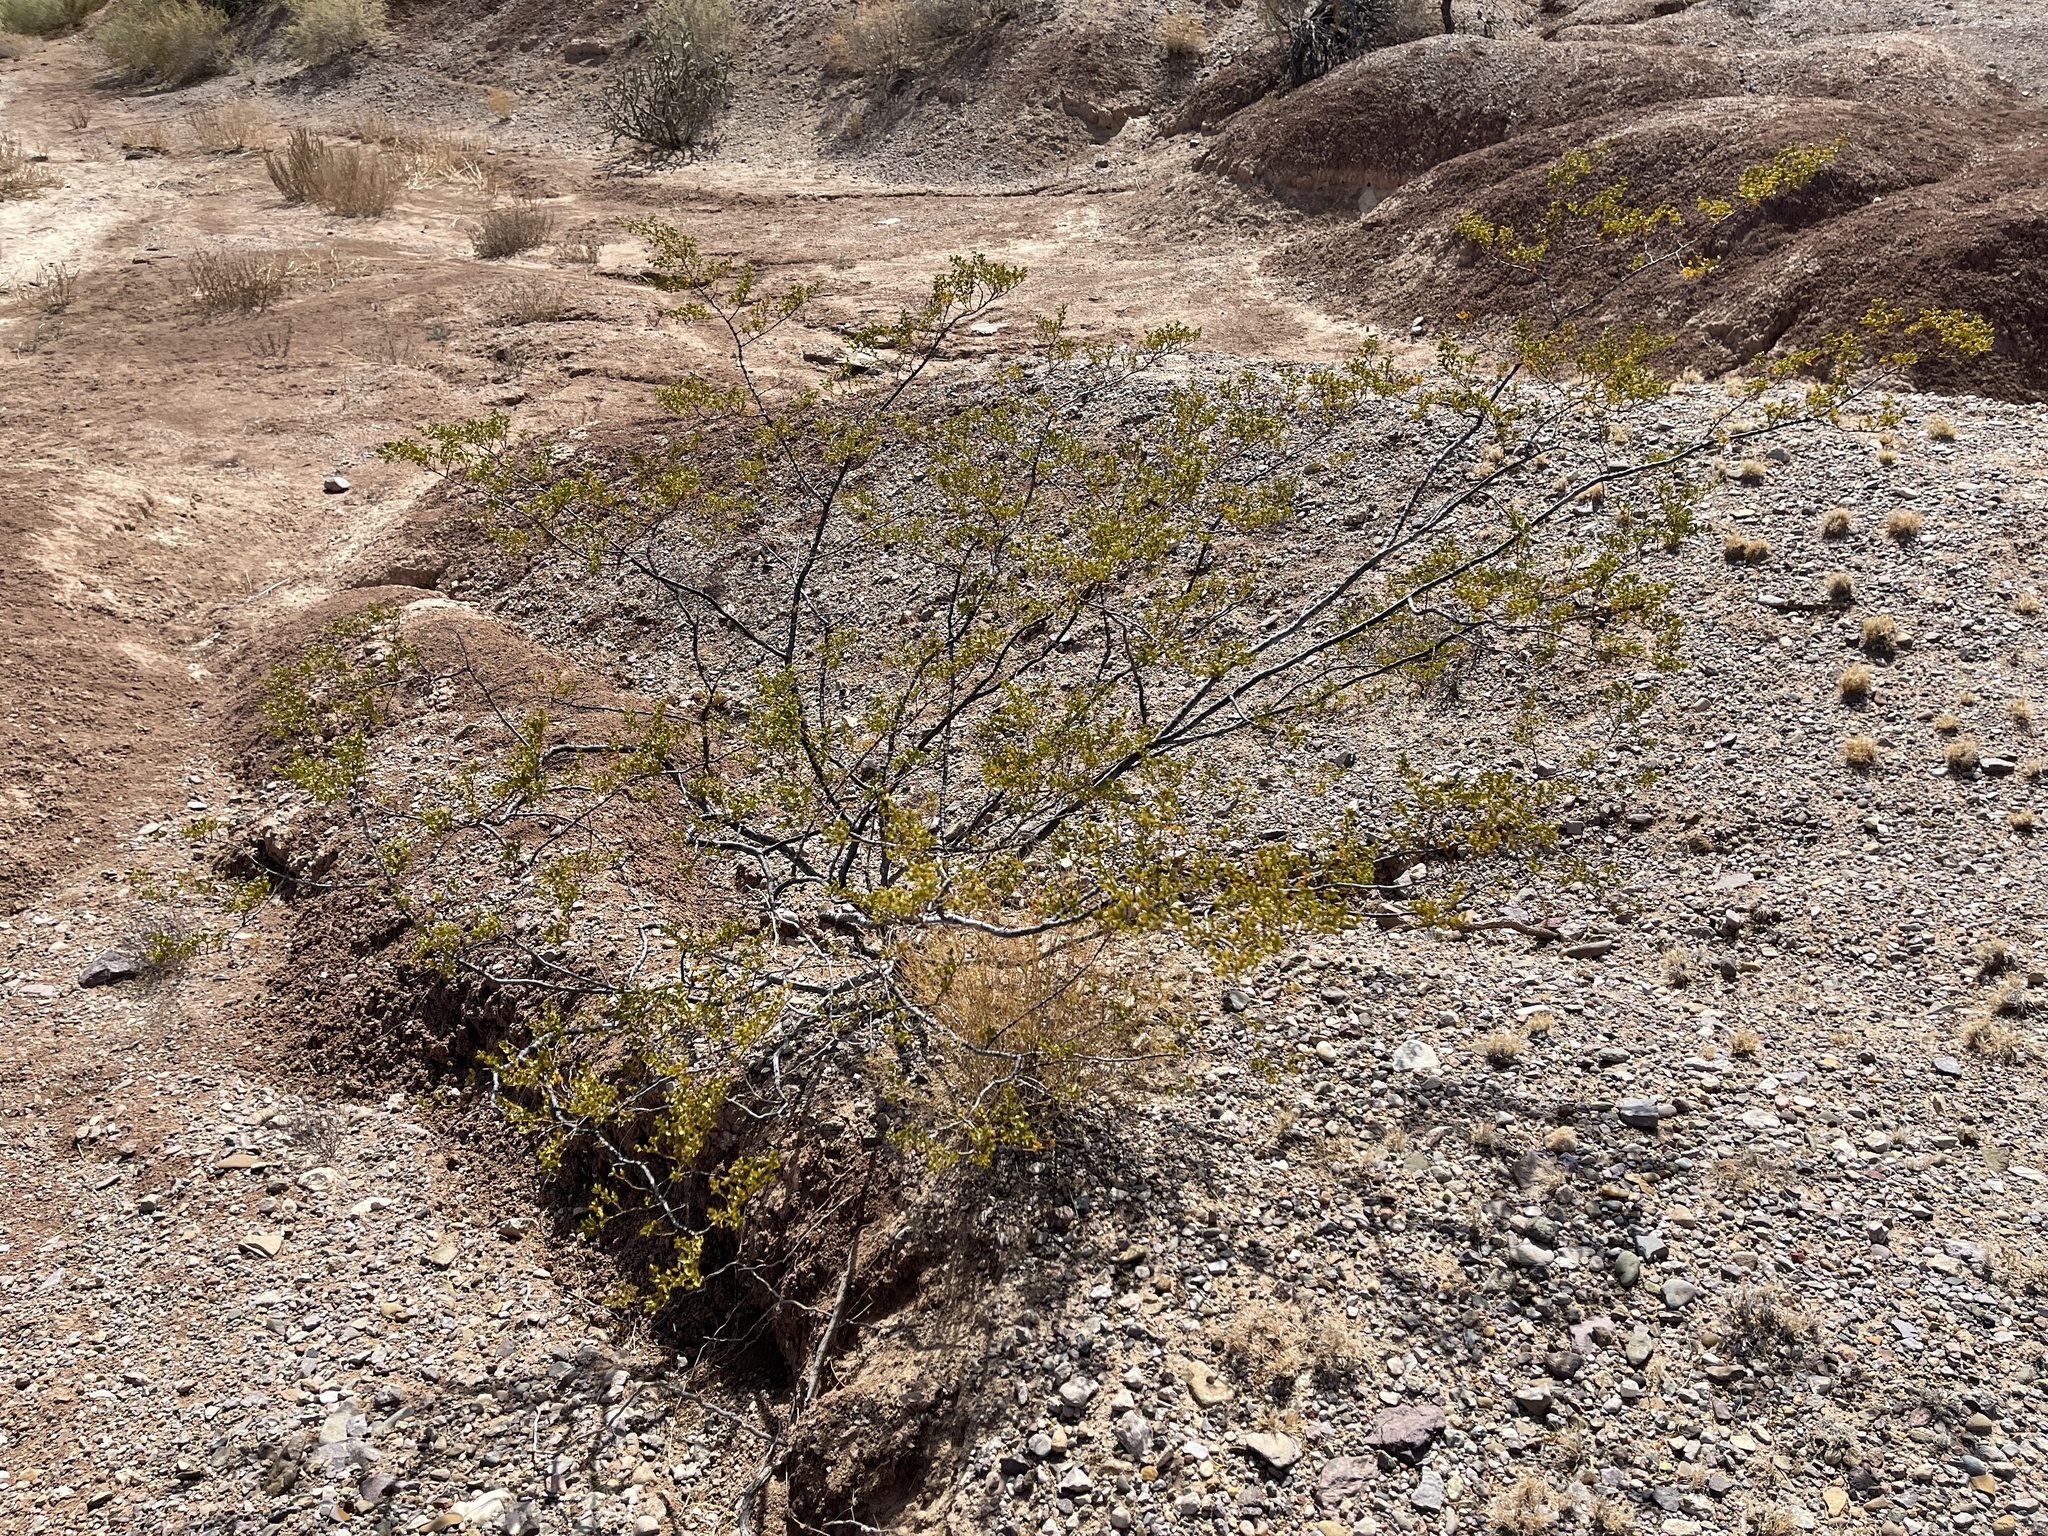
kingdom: Plantae
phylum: Tracheophyta
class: Magnoliopsida
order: Zygophyllales
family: Zygophyllaceae
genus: Larrea
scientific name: Larrea tridentata
